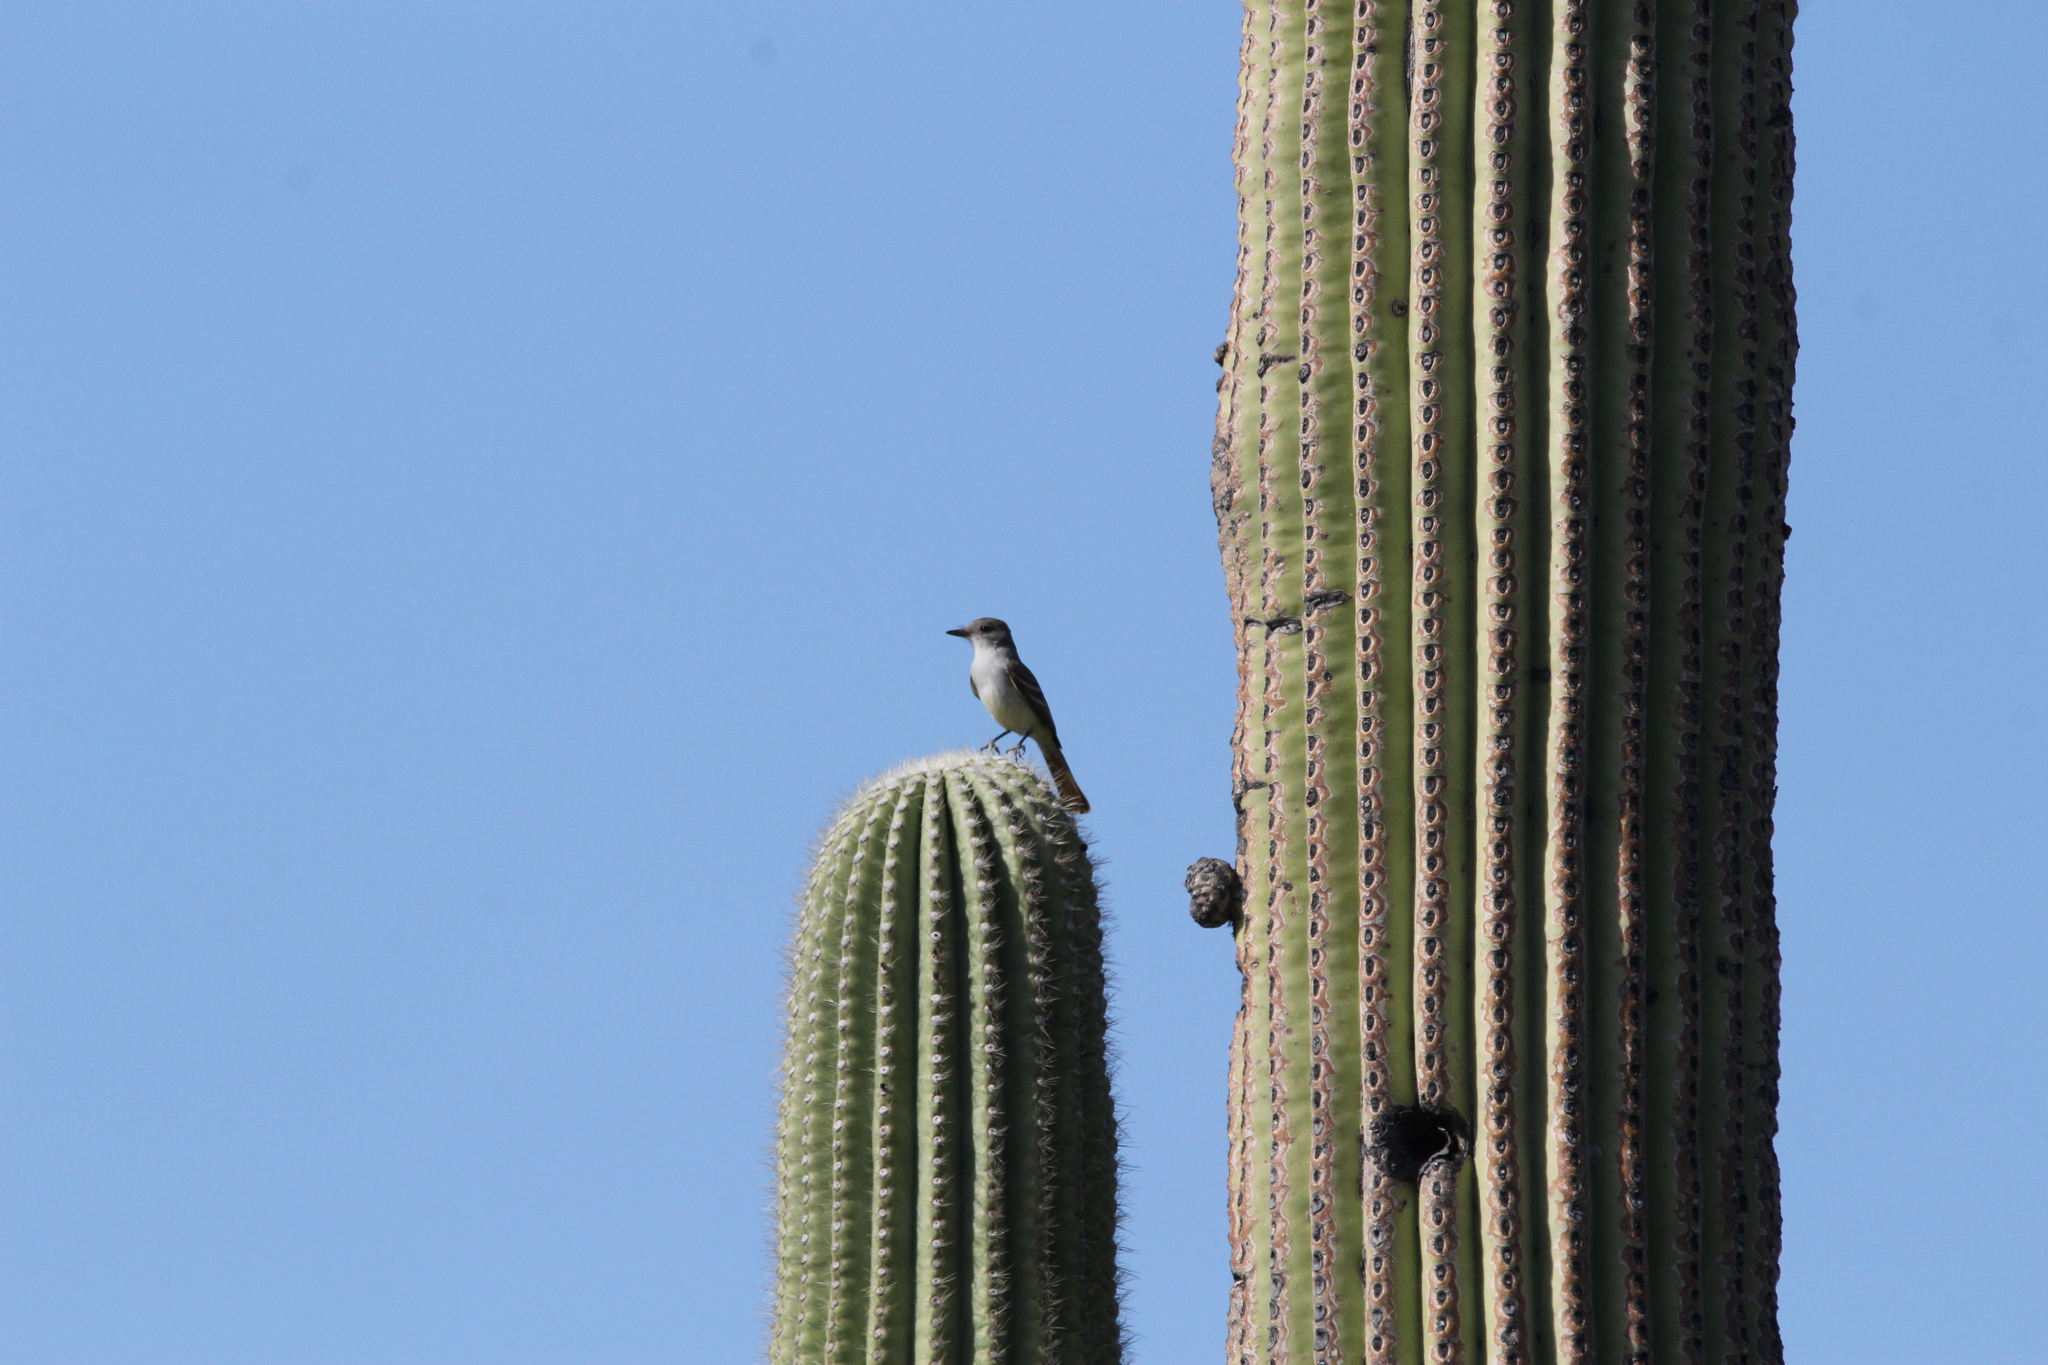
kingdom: Animalia
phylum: Chordata
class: Aves
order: Passeriformes
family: Tyrannidae
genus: Myiarchus
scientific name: Myiarchus cinerascens
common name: Ash-throated flycatcher
